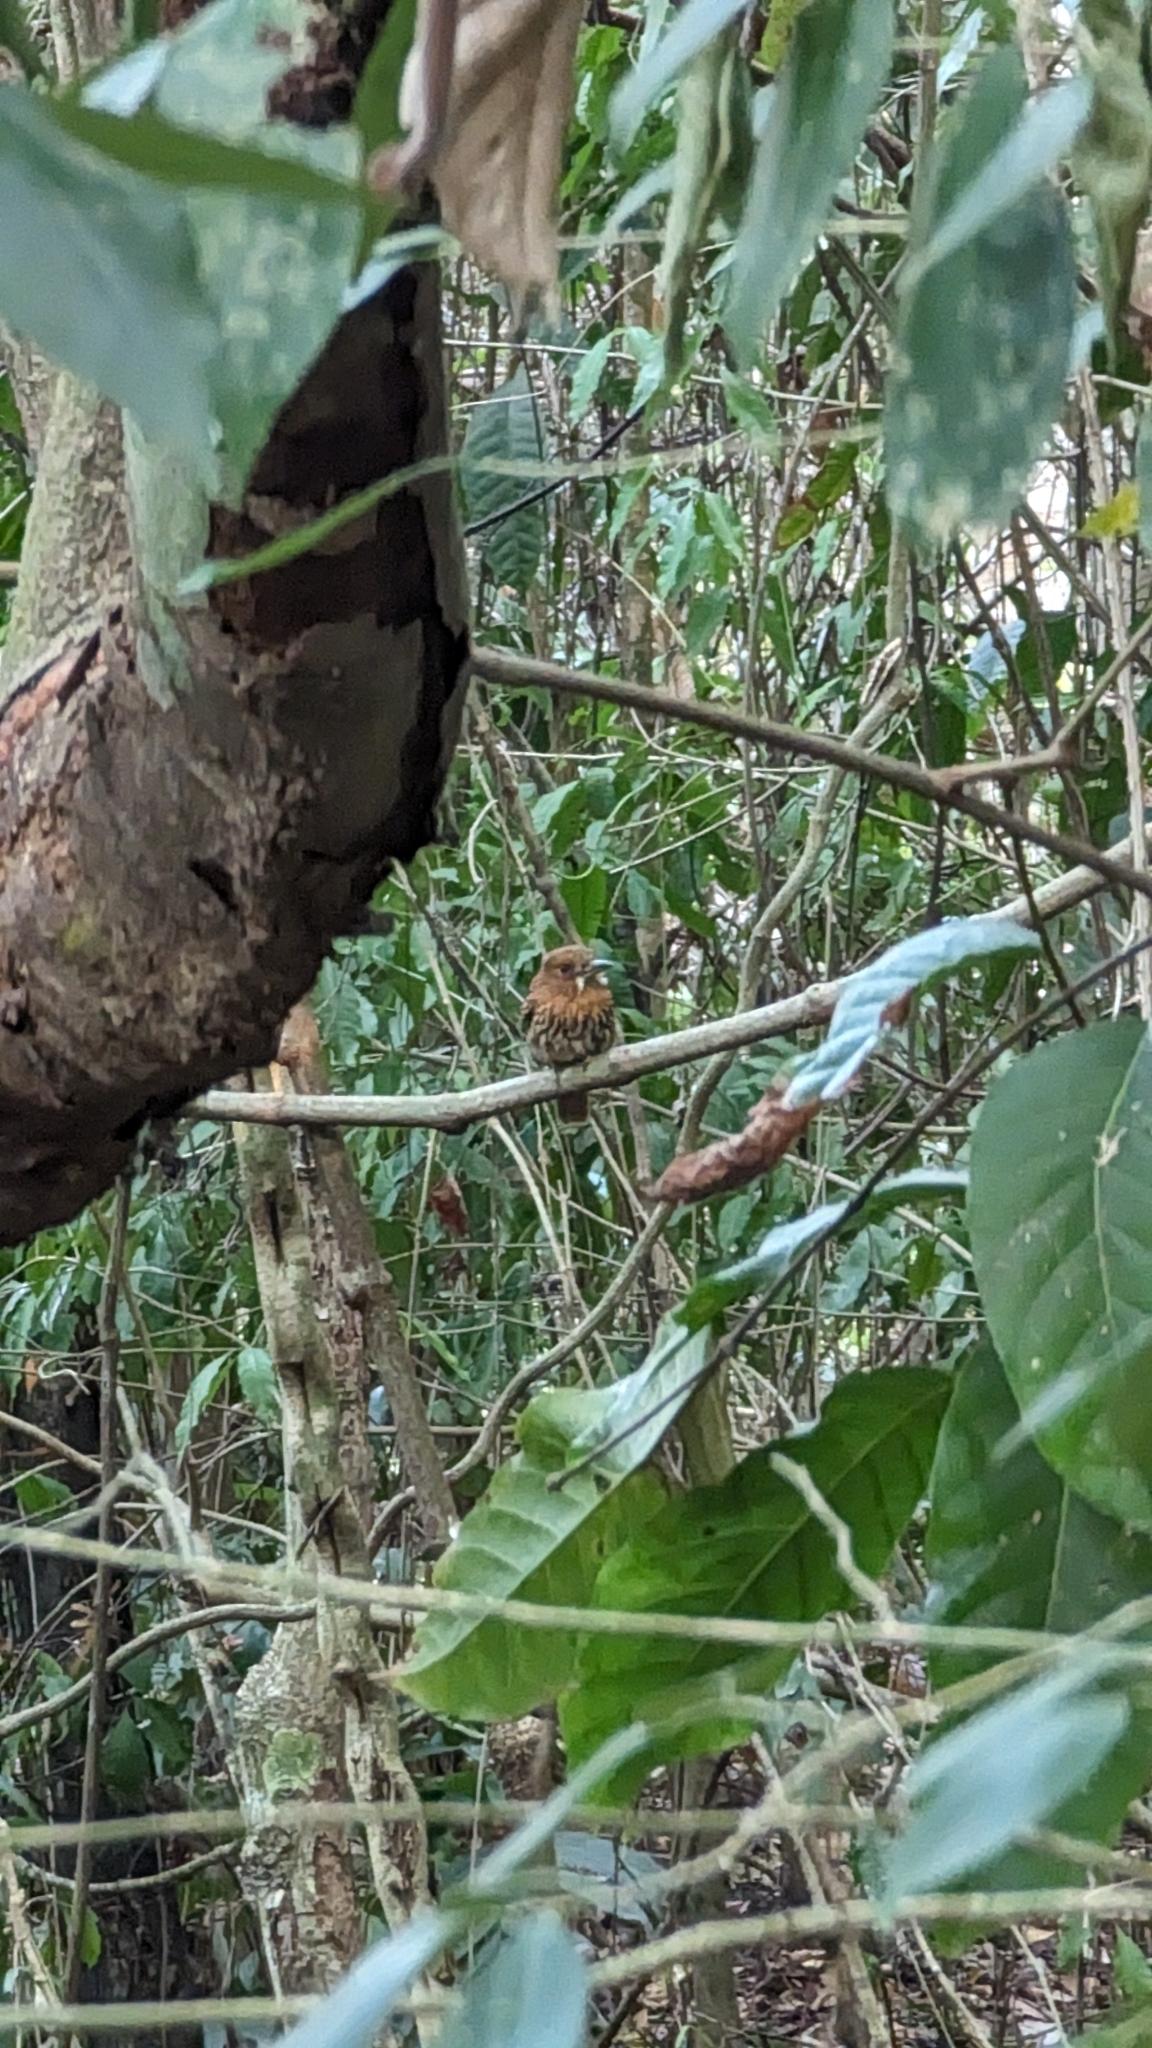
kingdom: Animalia
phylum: Chordata
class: Aves
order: Piciformes
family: Bucconidae
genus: Malacoptila
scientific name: Malacoptila panamensis
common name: White-whiskered puffbird
